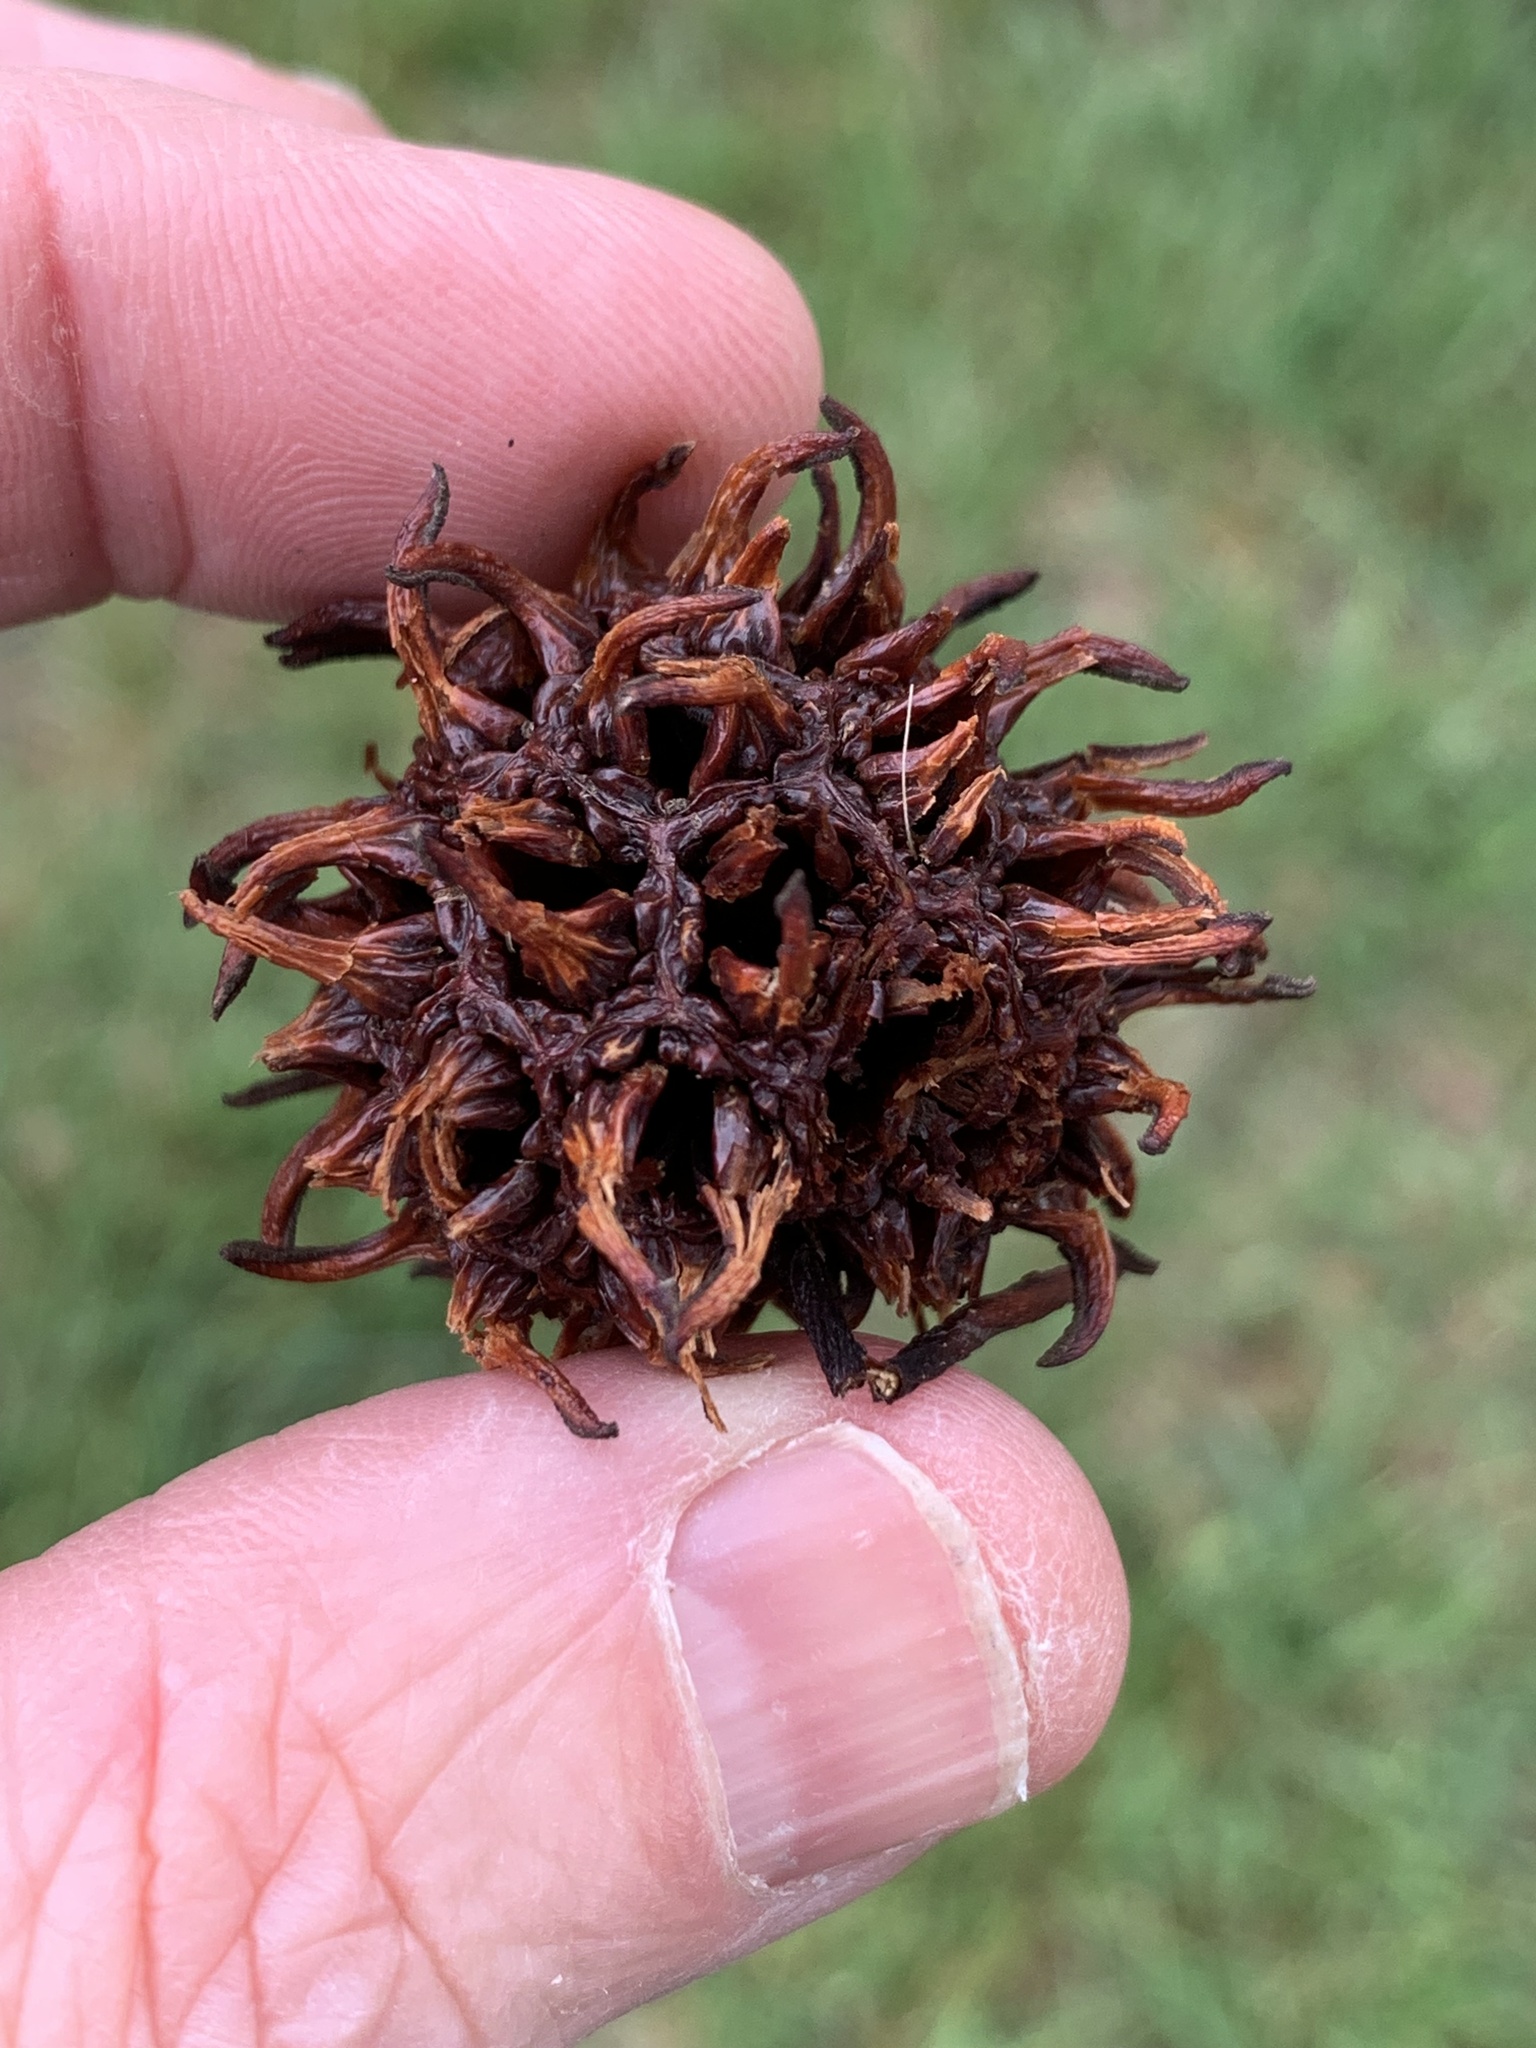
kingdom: Plantae
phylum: Tracheophyta
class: Magnoliopsida
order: Saxifragales
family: Altingiaceae
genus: Liquidambar
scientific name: Liquidambar styraciflua
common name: Sweet gum
